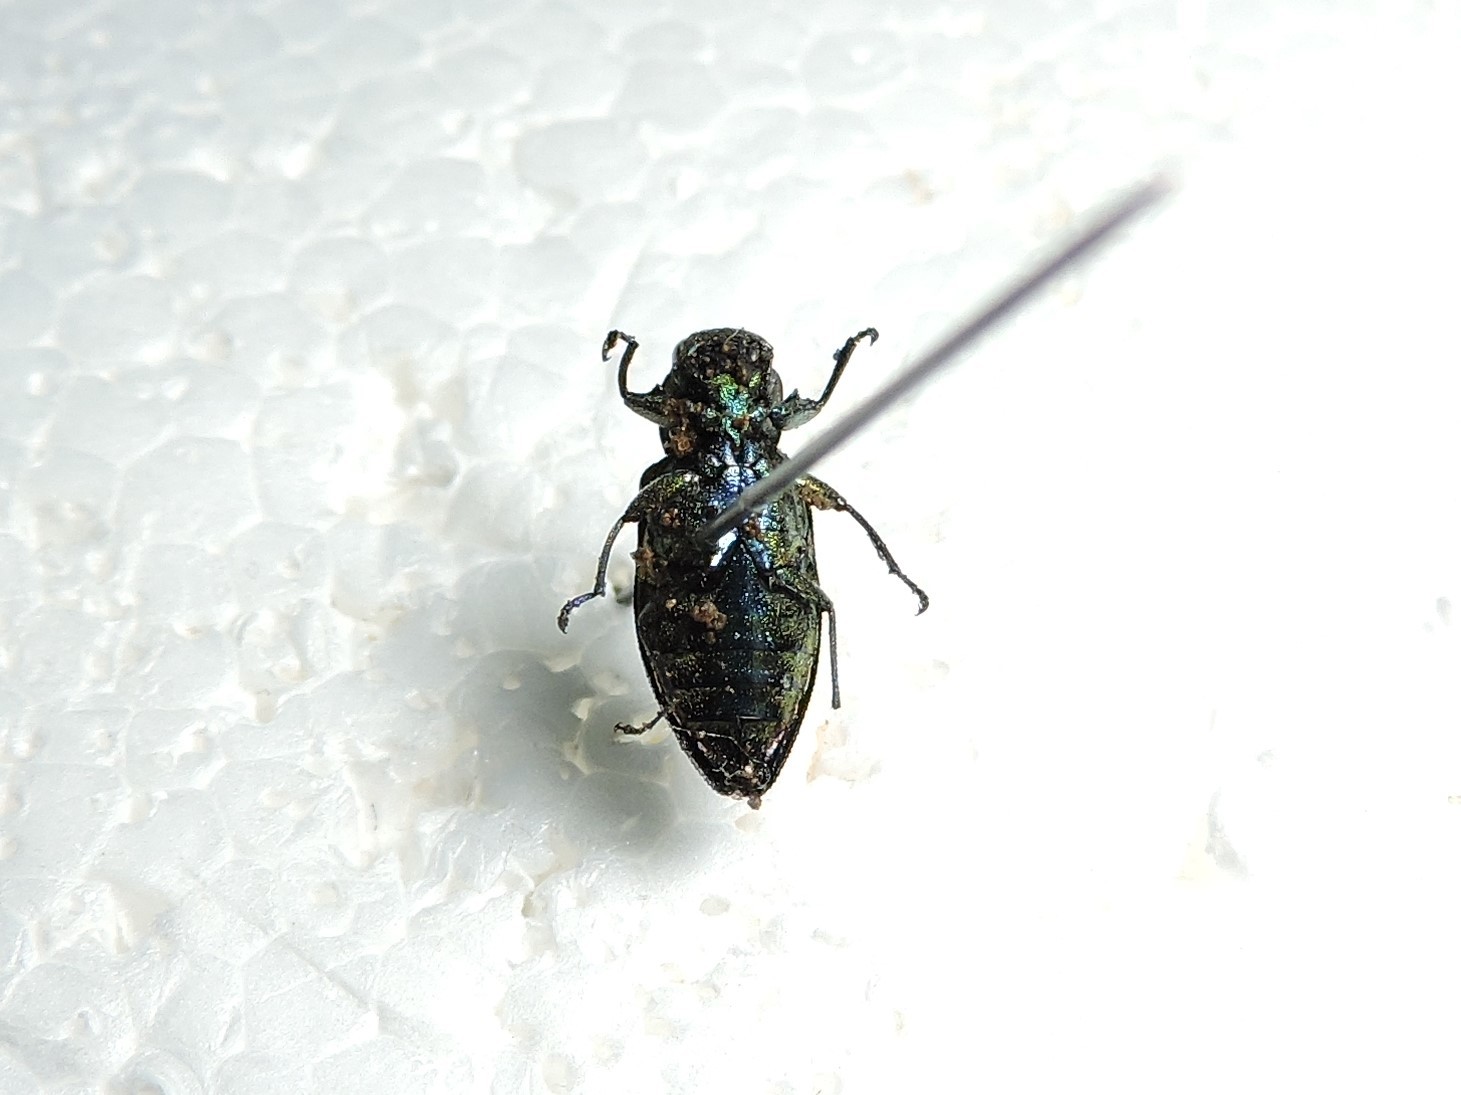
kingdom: Animalia
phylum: Arthropoda
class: Insecta
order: Coleoptera
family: Buprestidae
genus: Chrysobothris
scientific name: Chrysobothris igniventris
